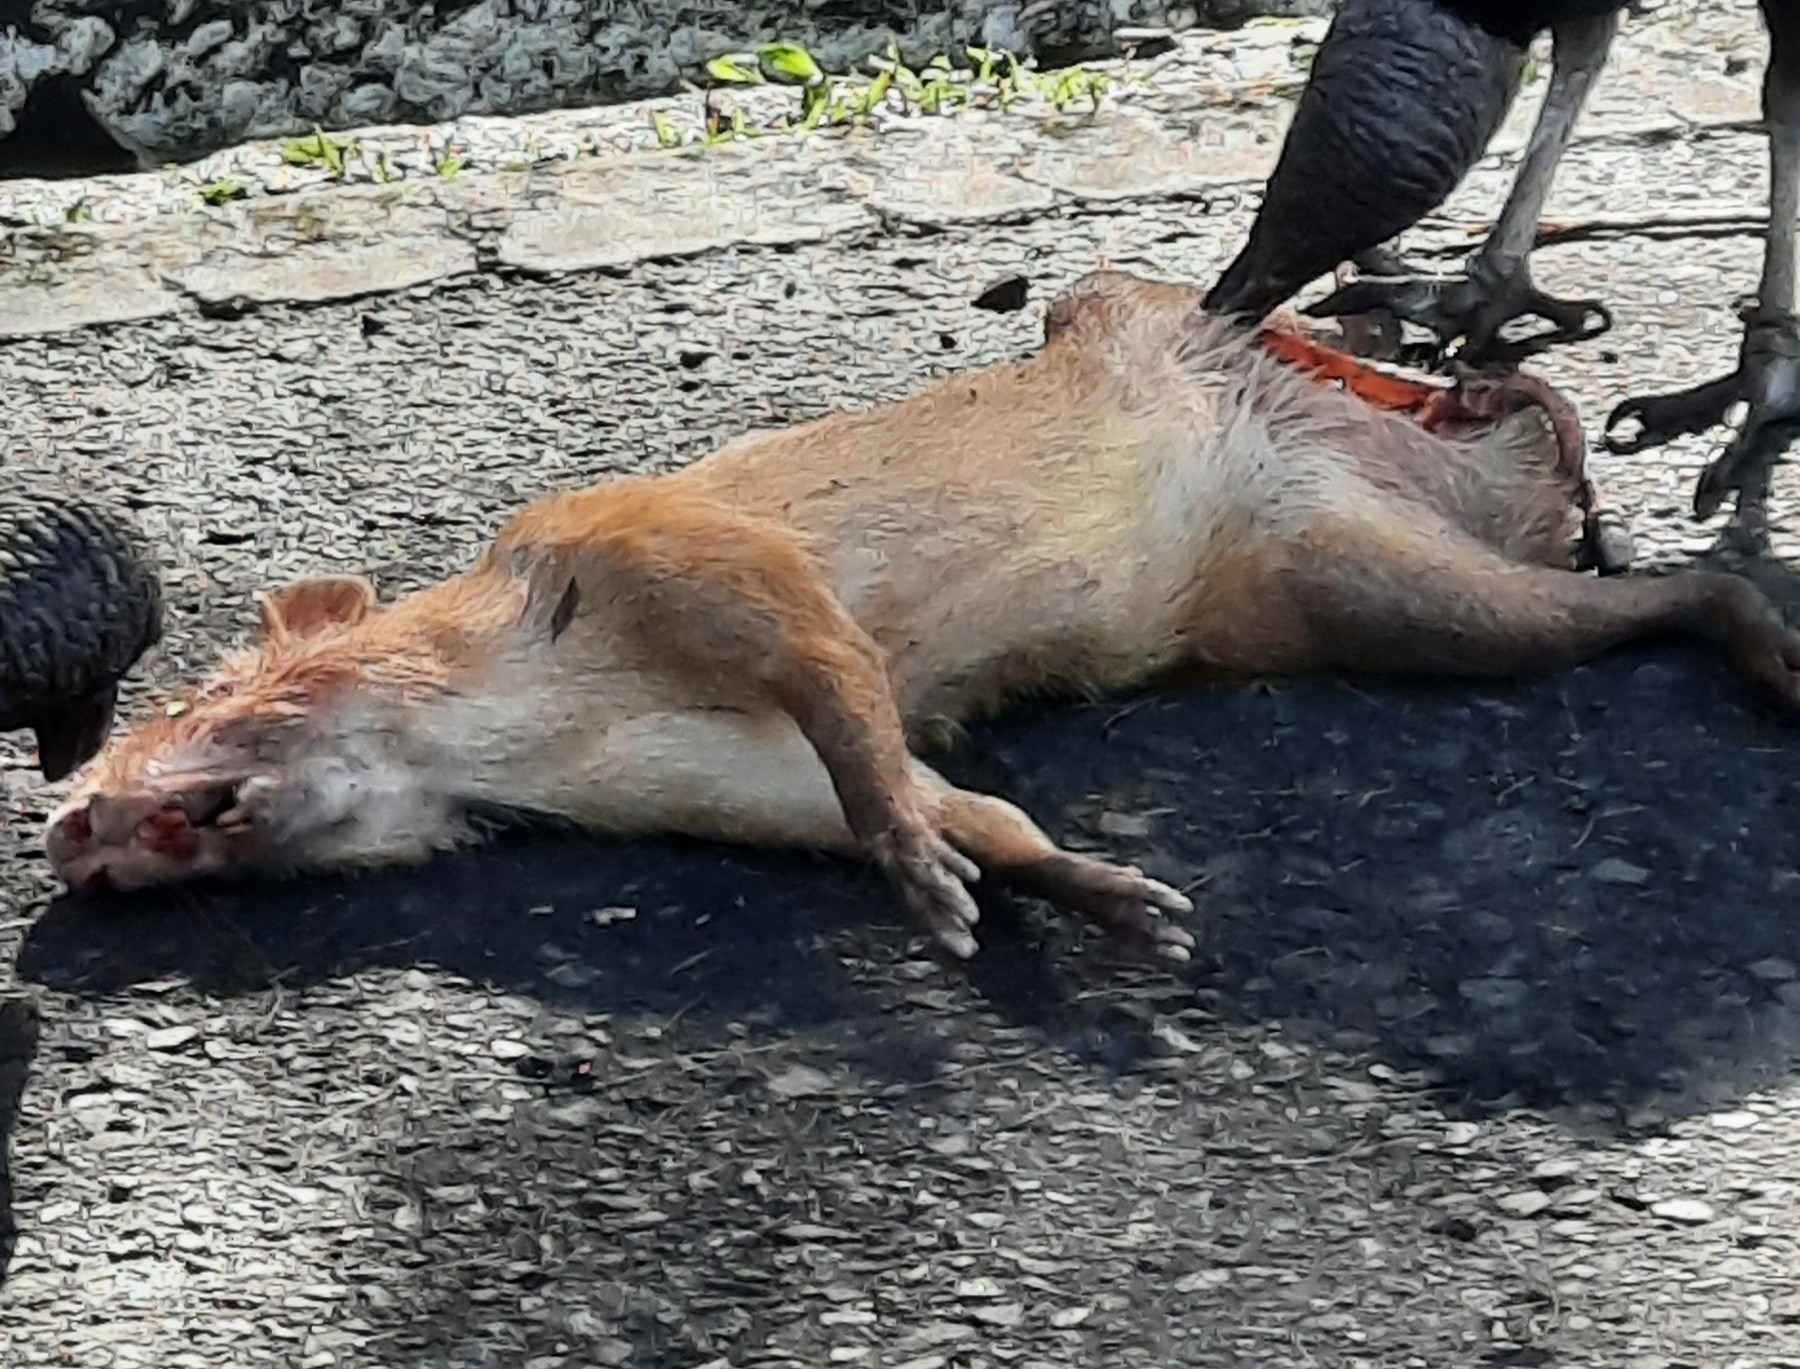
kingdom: Animalia
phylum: Chordata
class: Mammalia
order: Rodentia
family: Dasyproctidae
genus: Dasyprocta
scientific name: Dasyprocta punctata
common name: Central american agouti
